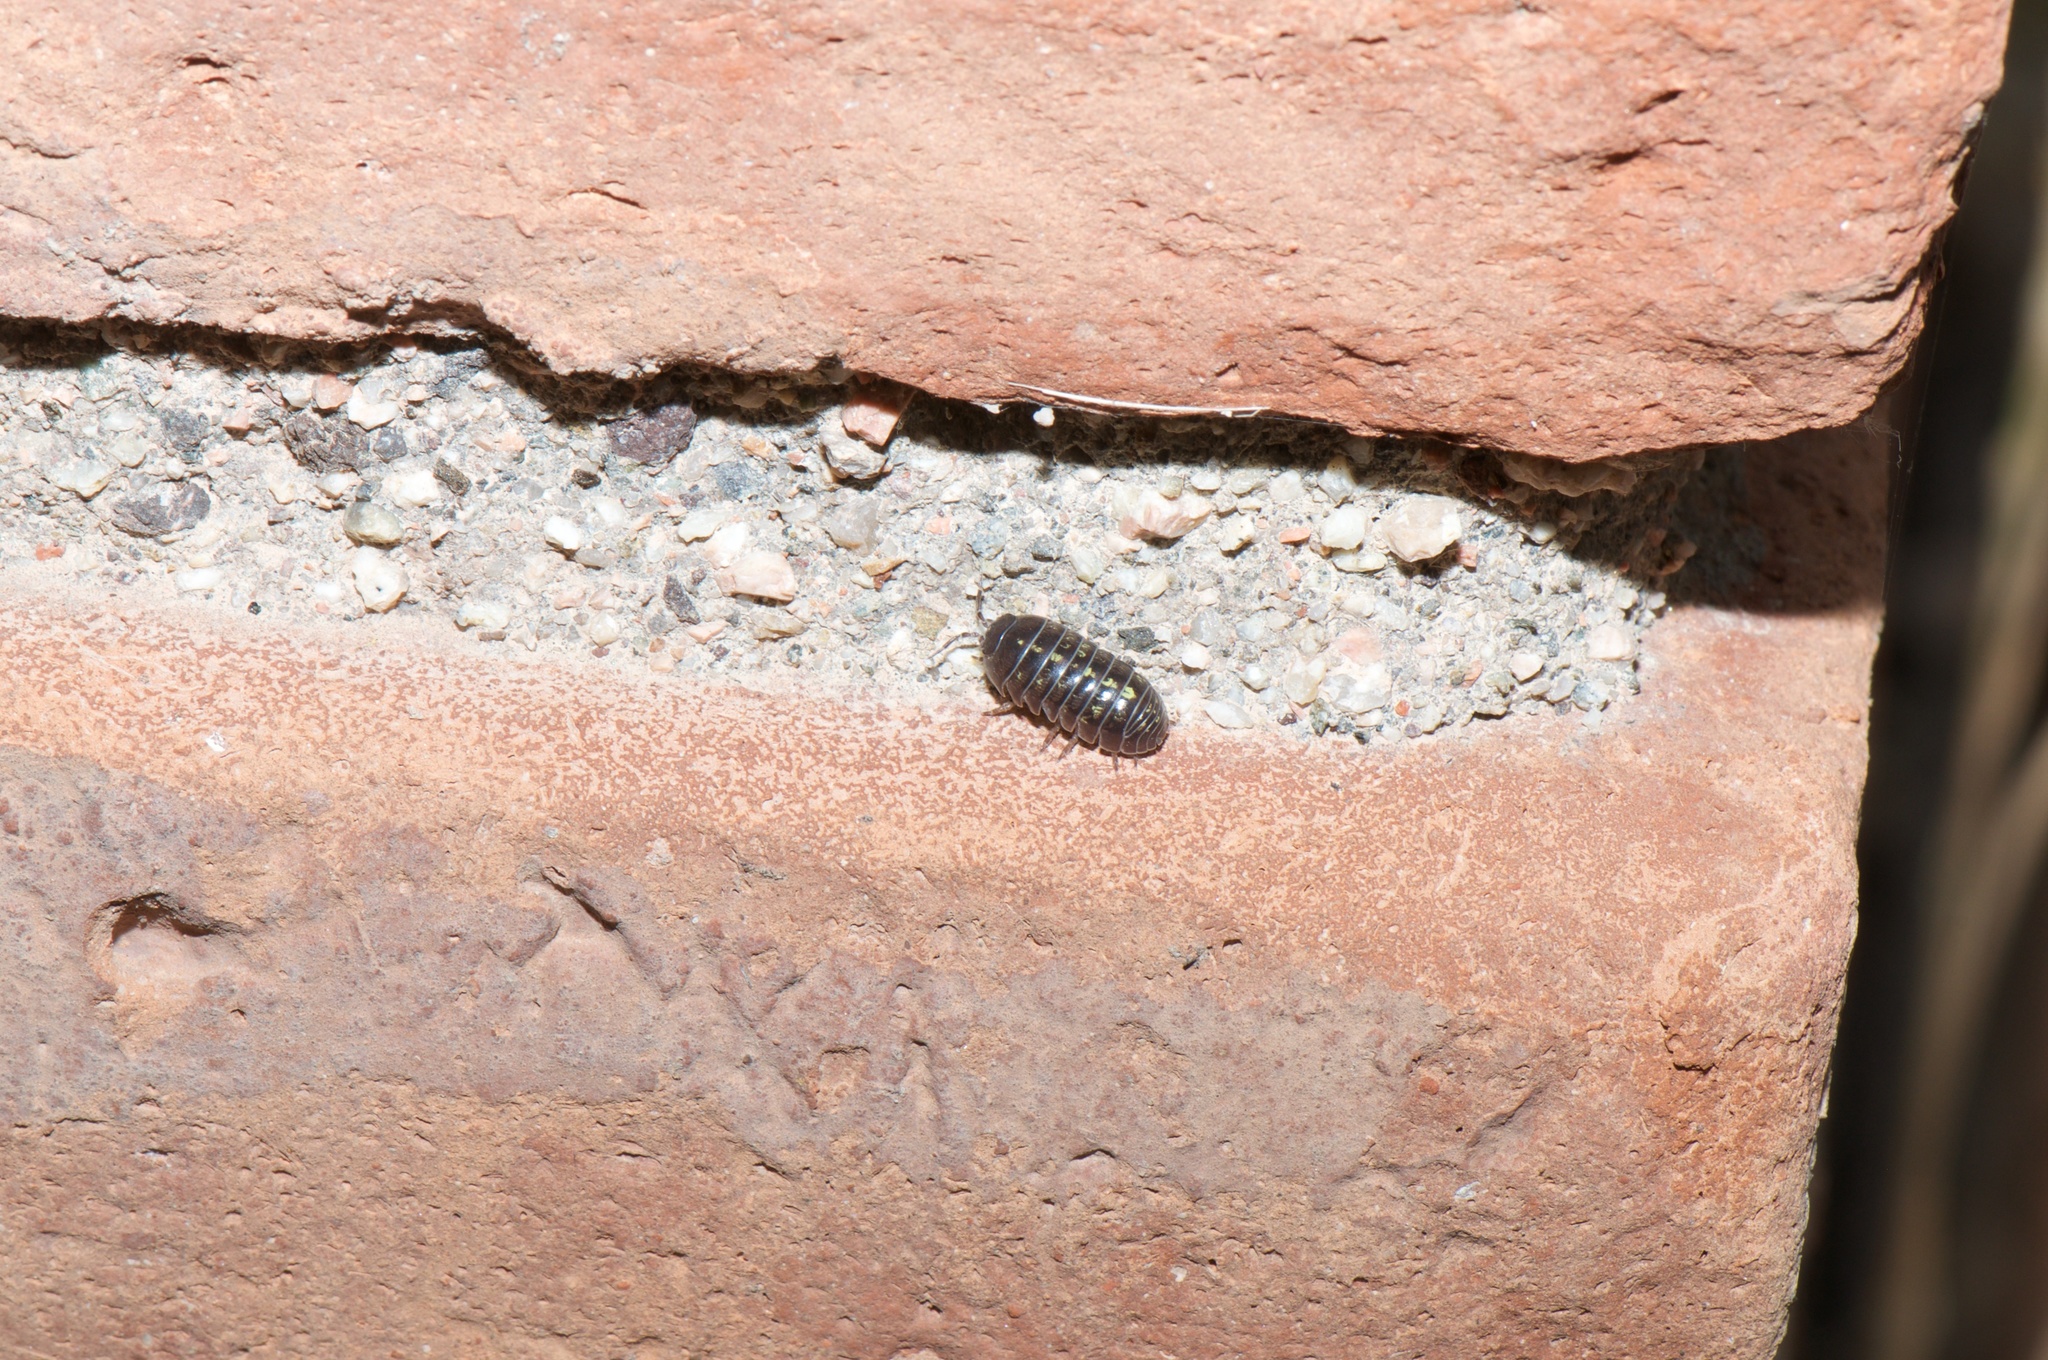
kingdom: Animalia
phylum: Arthropoda
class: Malacostraca
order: Isopoda
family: Armadillidiidae
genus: Armadillidium
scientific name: Armadillidium vulgare
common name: Common pill woodlouse
